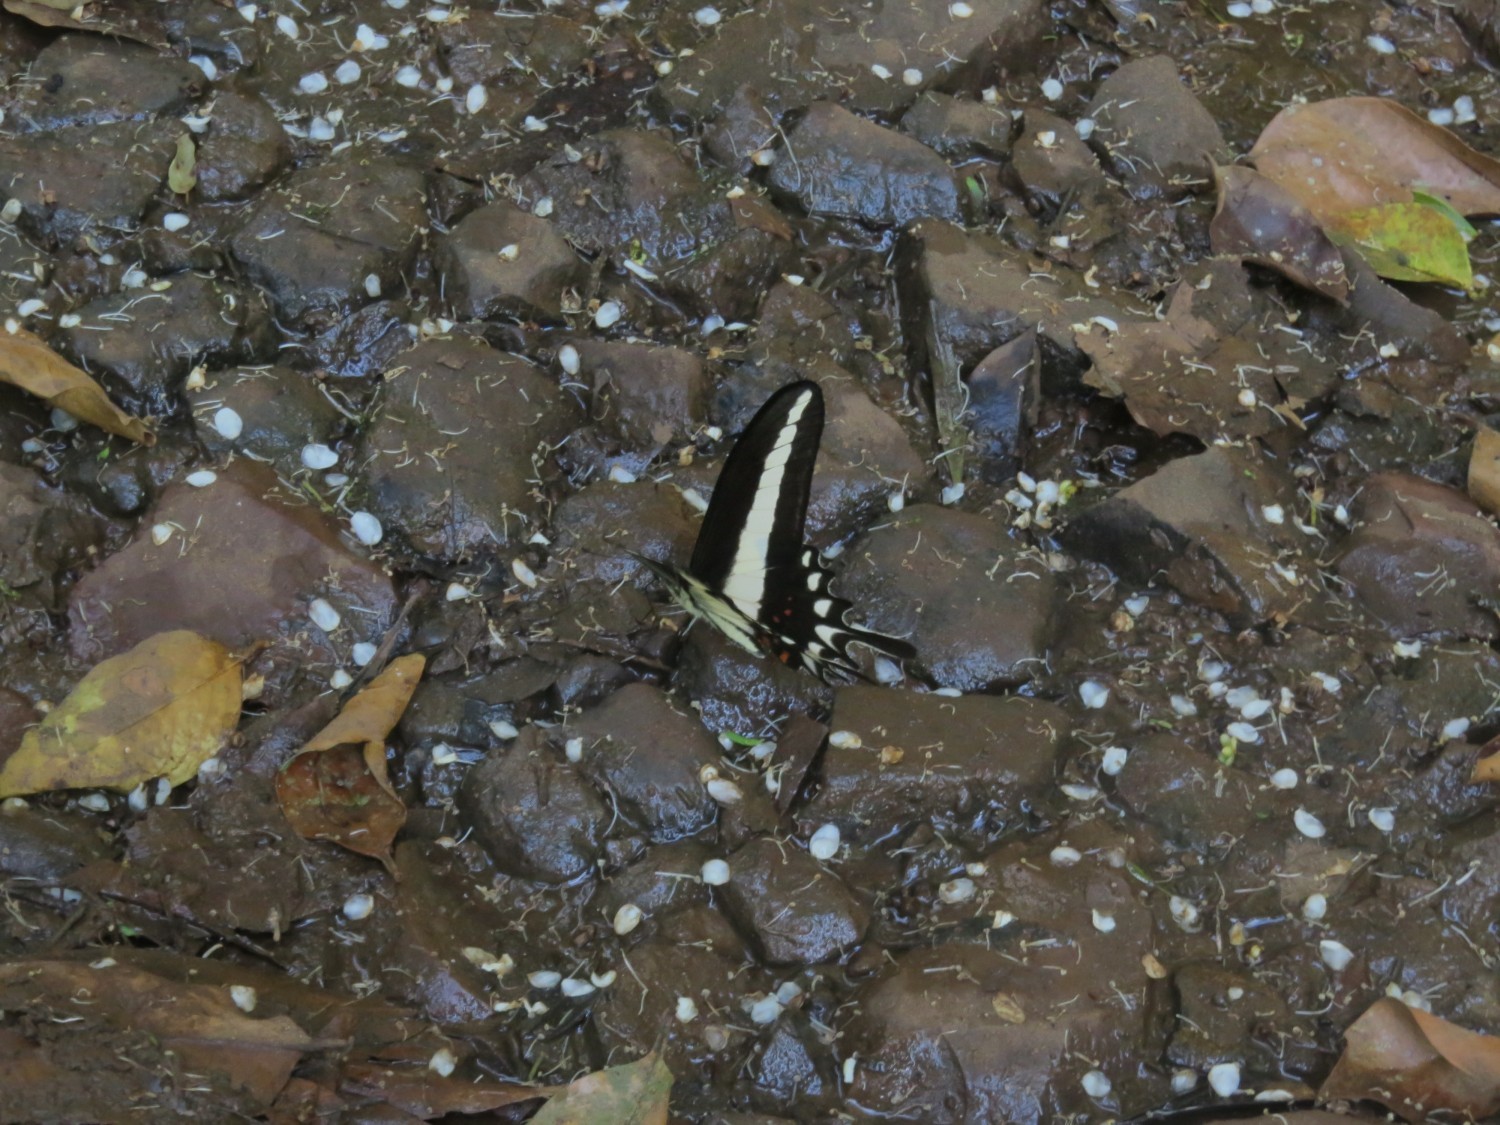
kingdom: Animalia
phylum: Arthropoda
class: Insecta
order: Lepidoptera
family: Papilionidae
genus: Heraclides
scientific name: Heraclides hectorides
